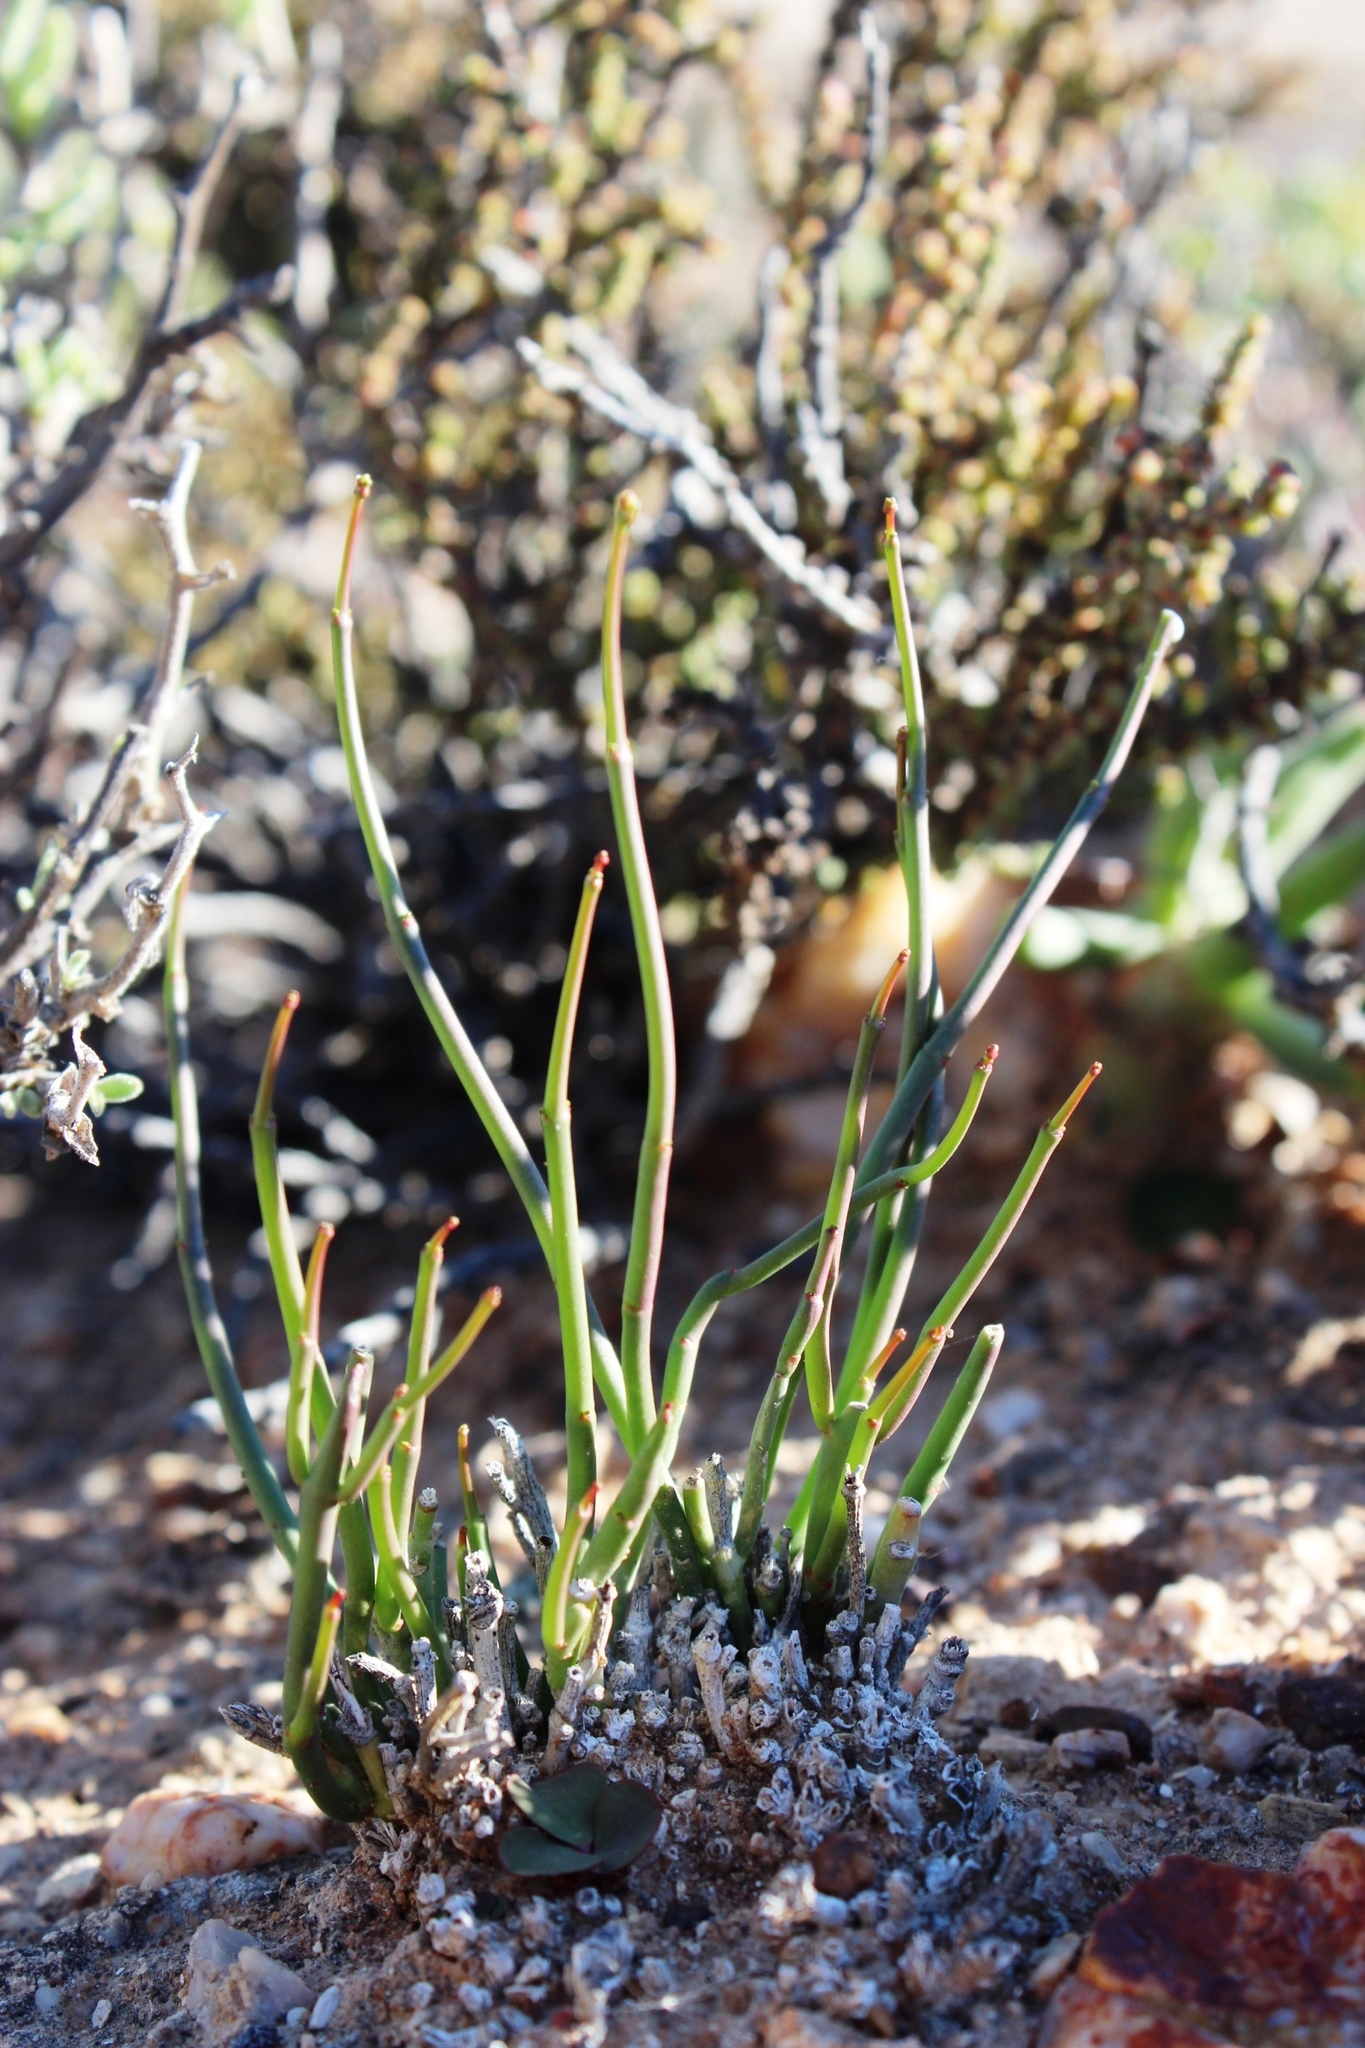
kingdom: Plantae
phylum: Tracheophyta
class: Magnoliopsida
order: Malpighiales
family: Euphorbiaceae
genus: Euphorbia
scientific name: Euphorbia exilis
